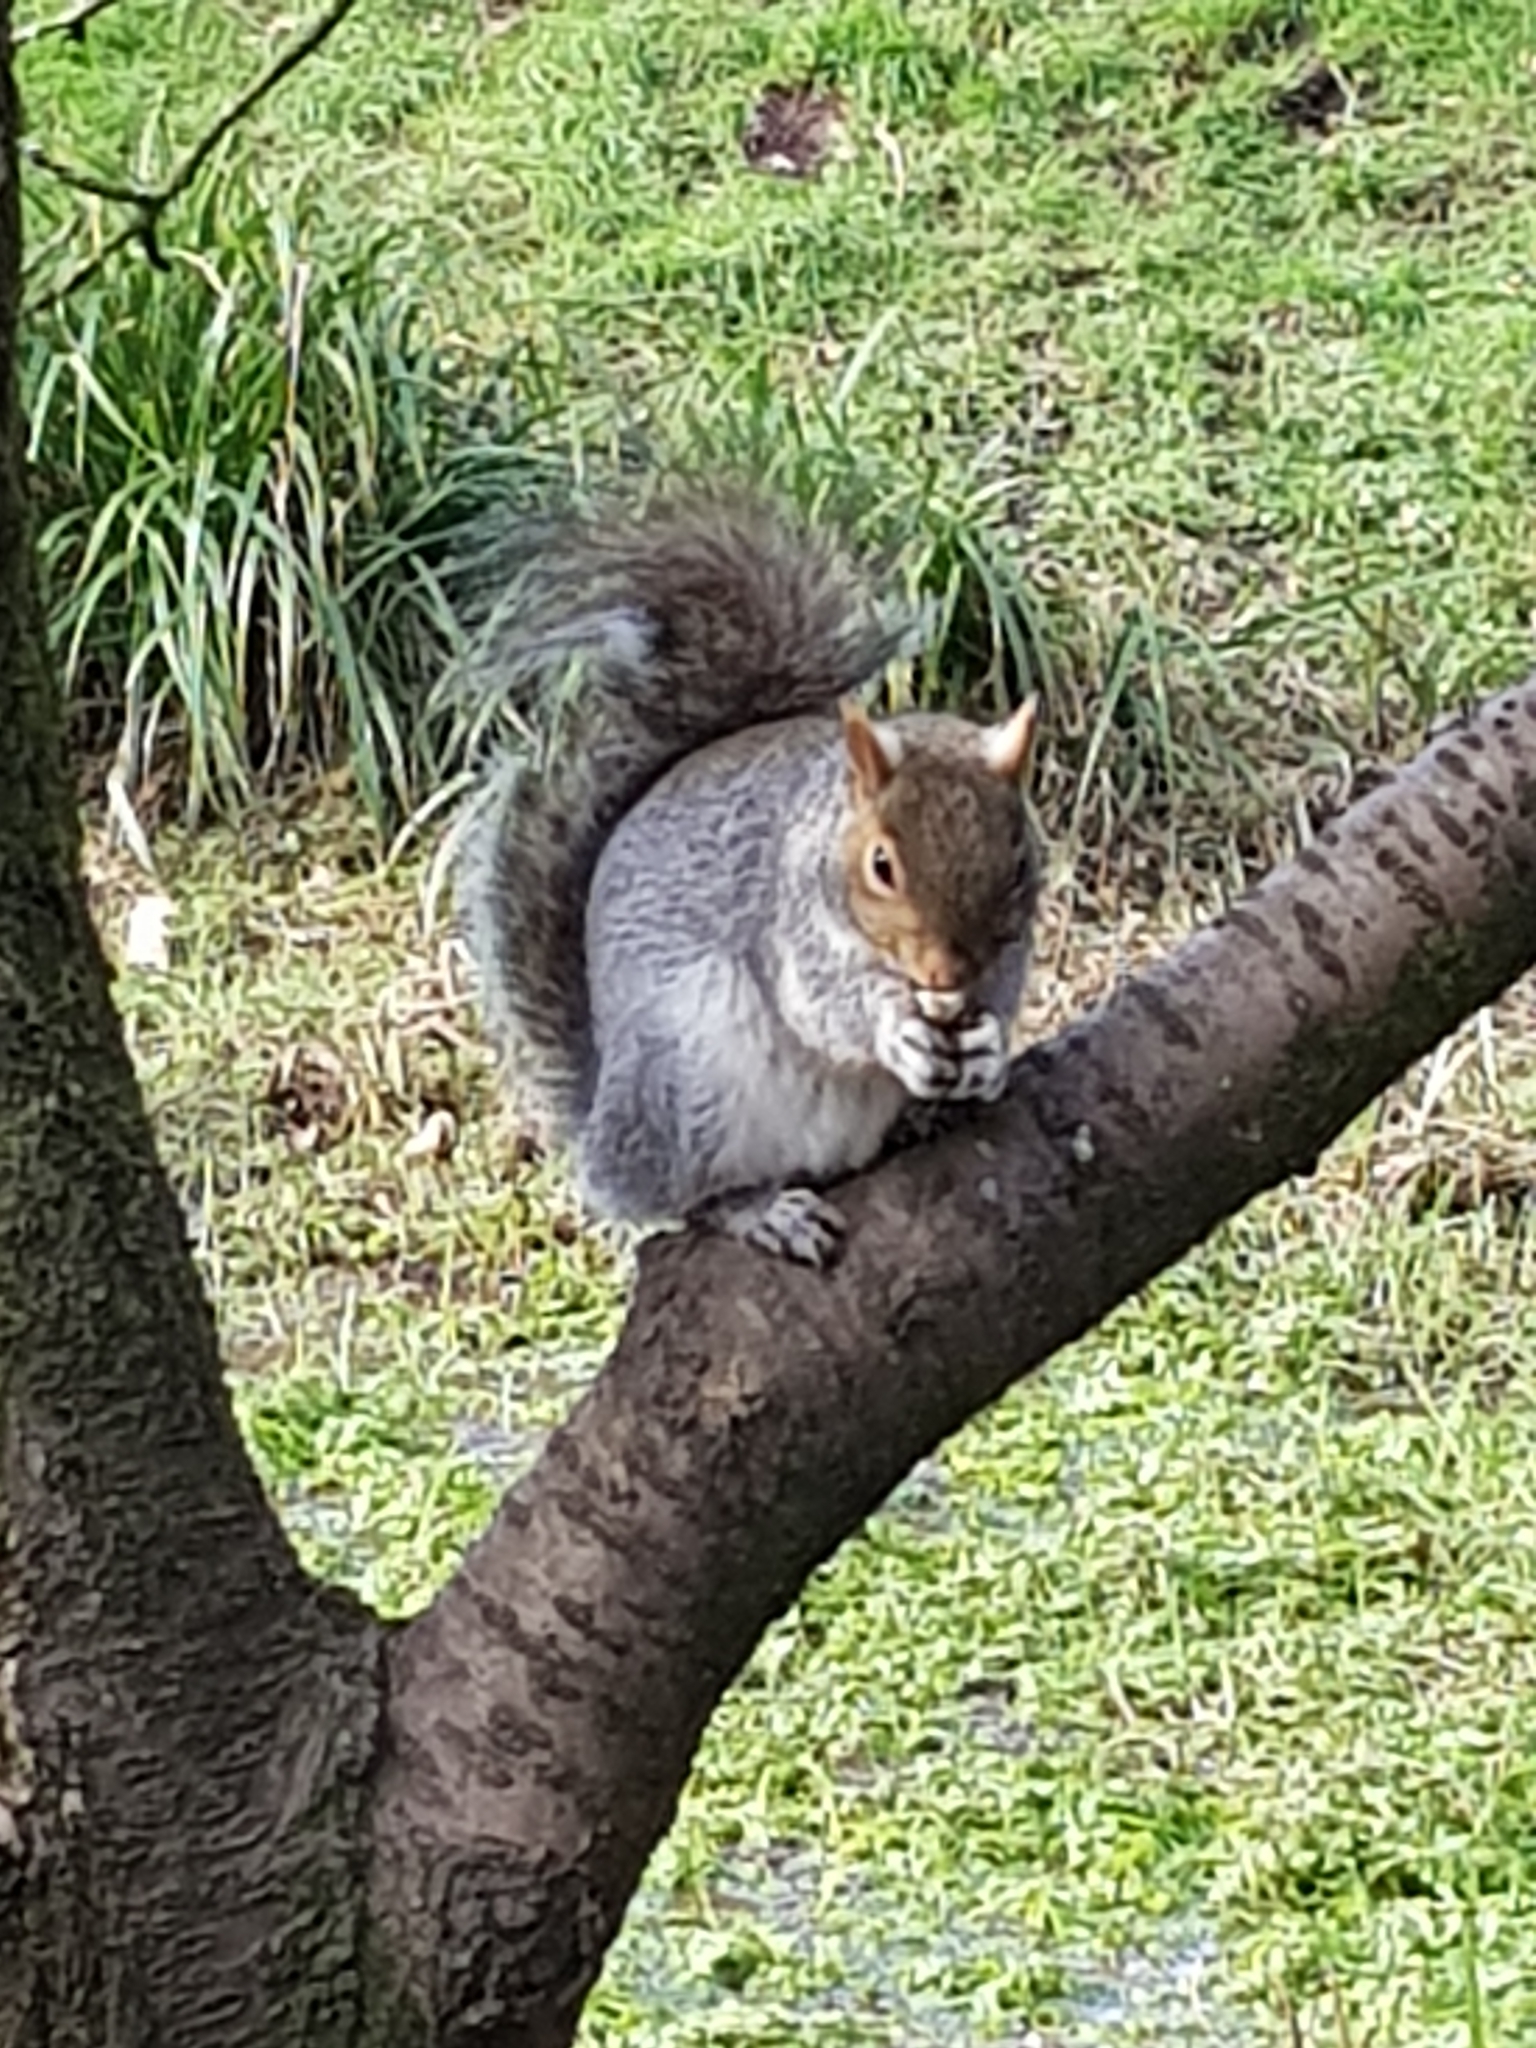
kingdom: Animalia
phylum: Chordata
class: Mammalia
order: Rodentia
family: Sciuridae
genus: Sciurus
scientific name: Sciurus carolinensis
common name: Eastern gray squirrel
